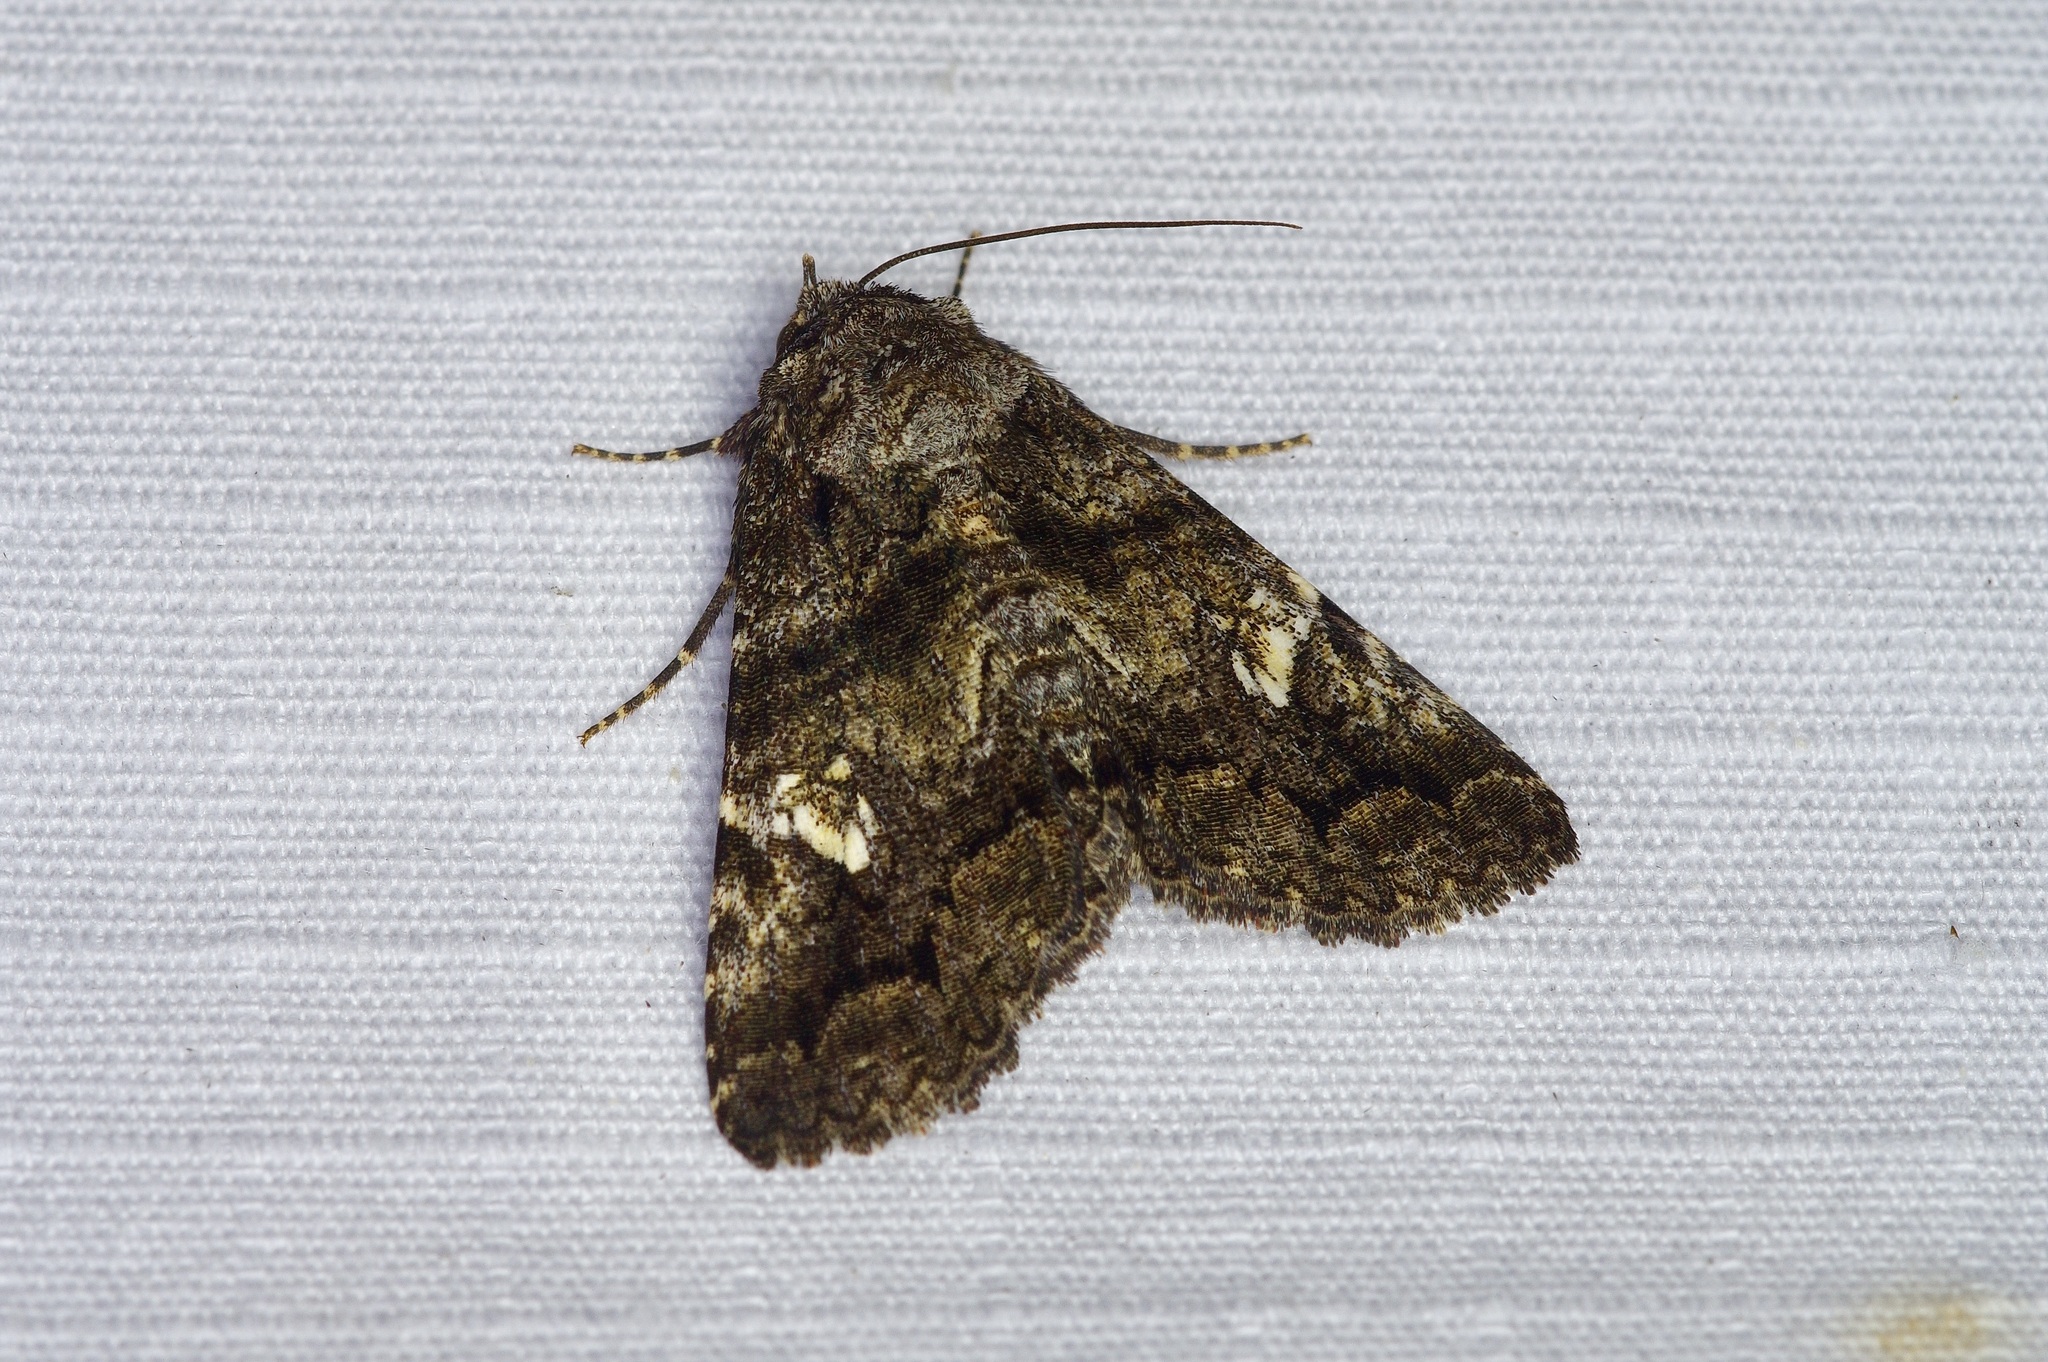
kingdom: Animalia
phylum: Arthropoda
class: Insecta
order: Lepidoptera
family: Erebidae
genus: Metria
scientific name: Metria amella
